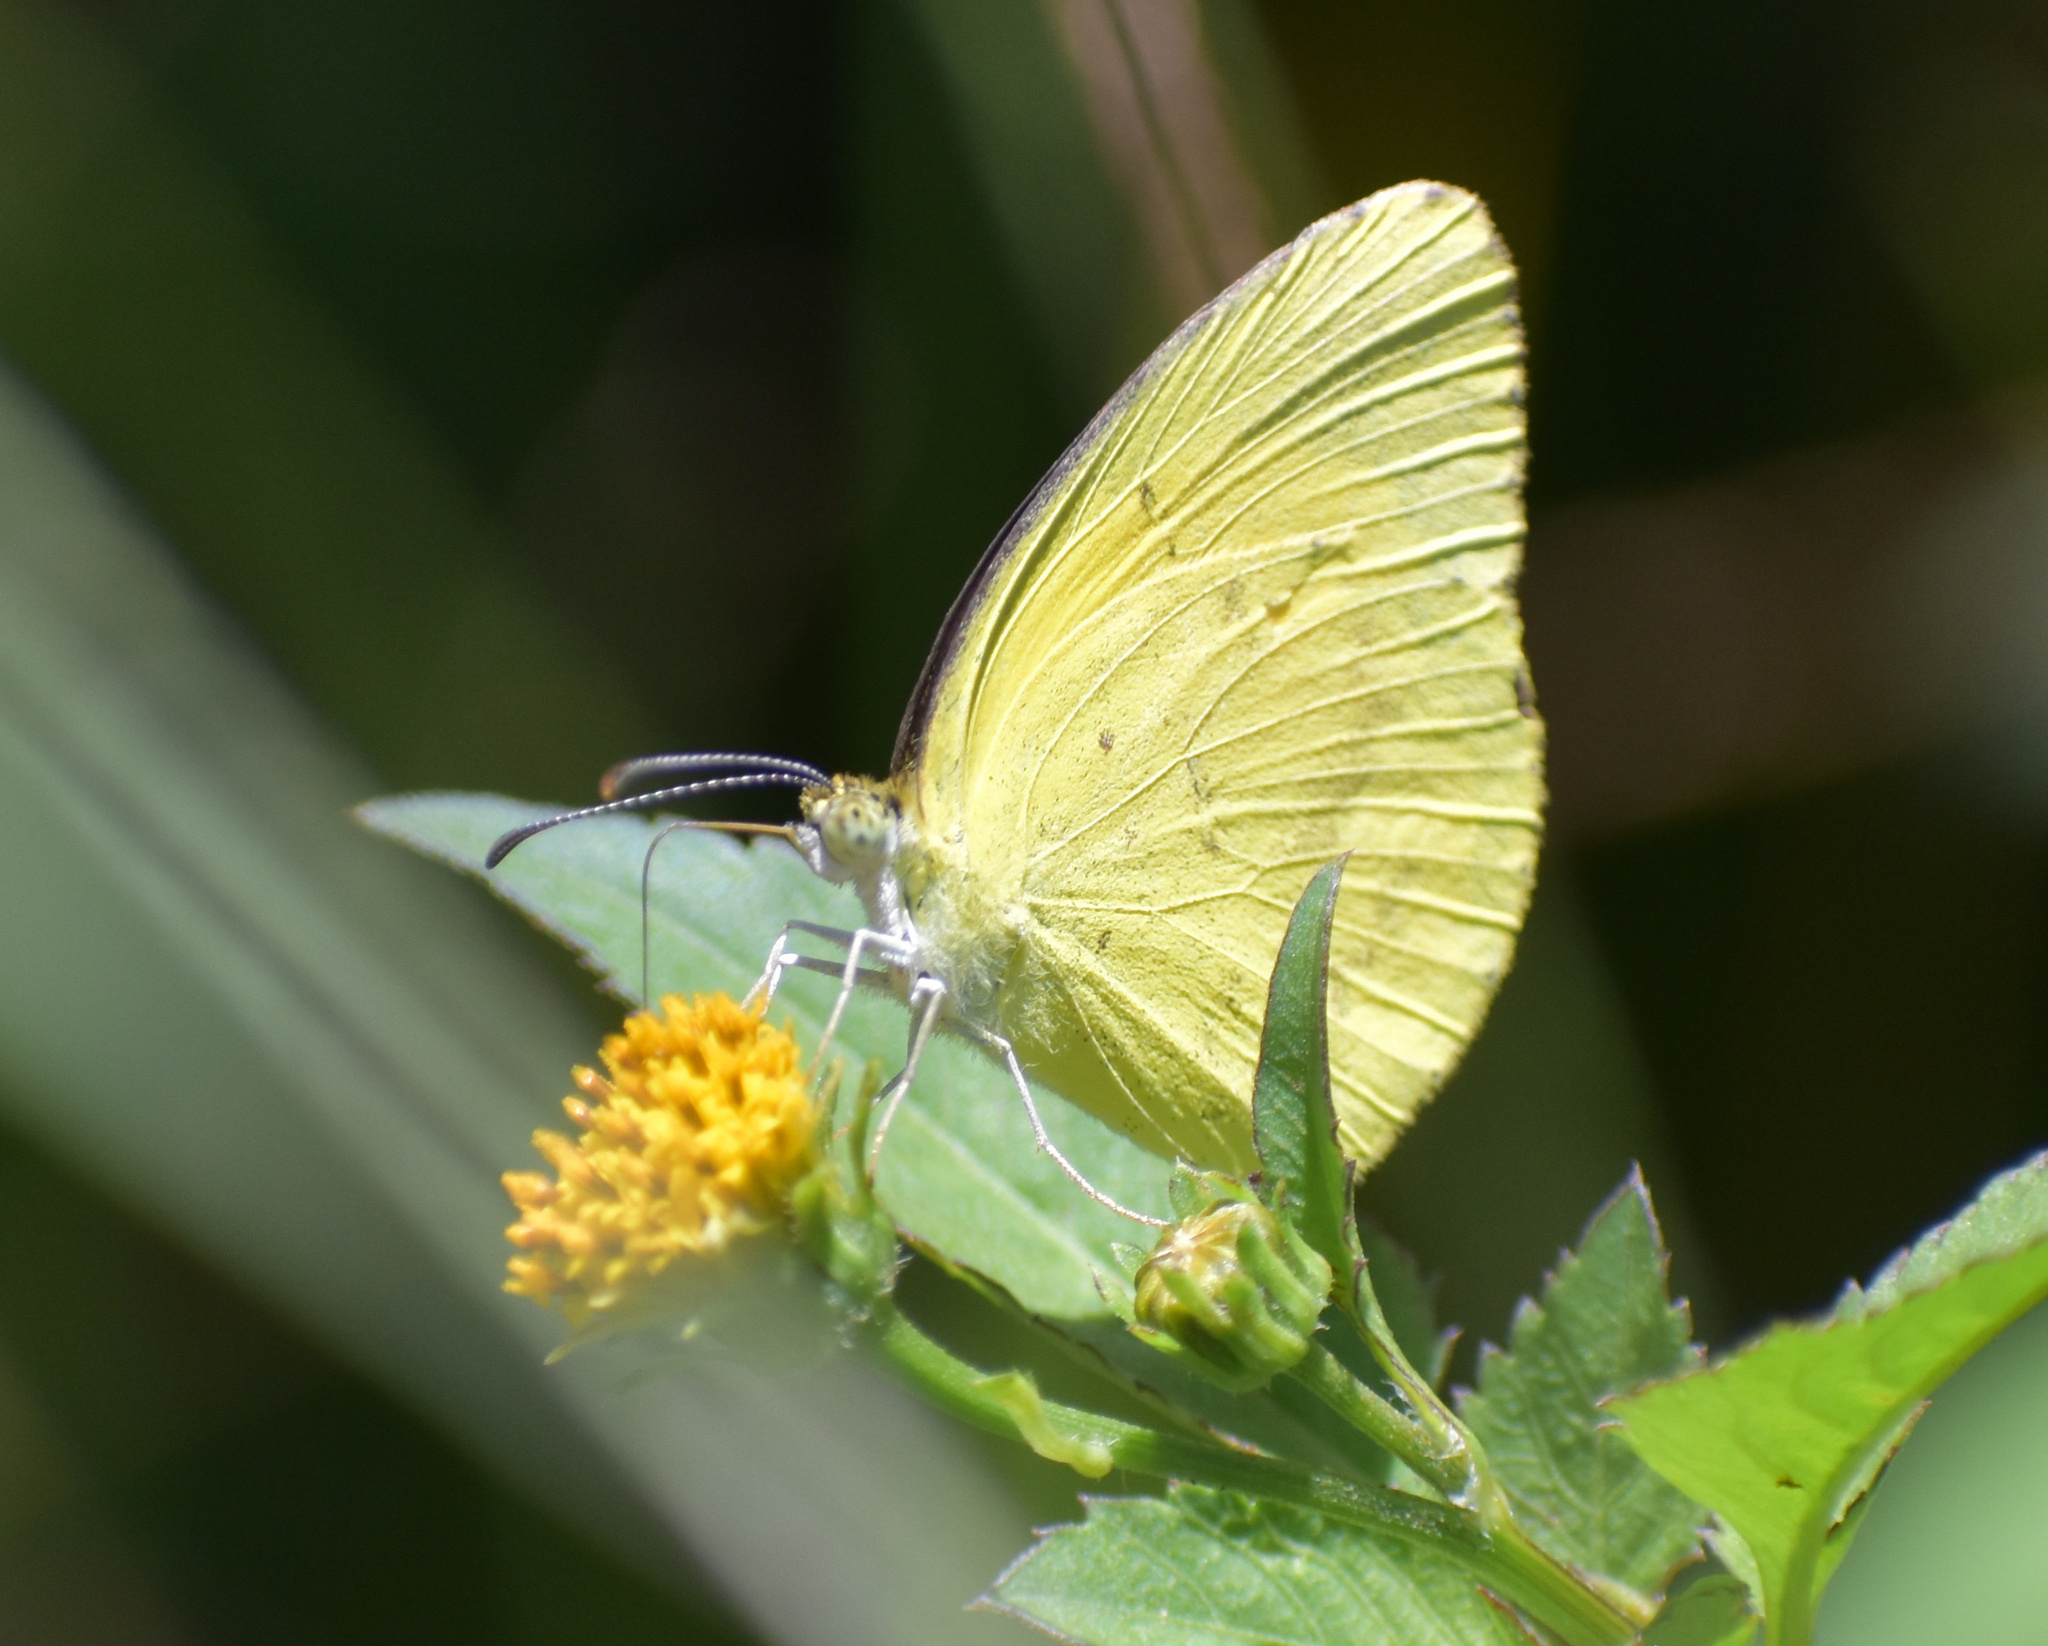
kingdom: Animalia
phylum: Arthropoda
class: Insecta
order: Lepidoptera
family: Pieridae
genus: Eurema
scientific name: Eurema brigitta
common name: Small grass yellow
